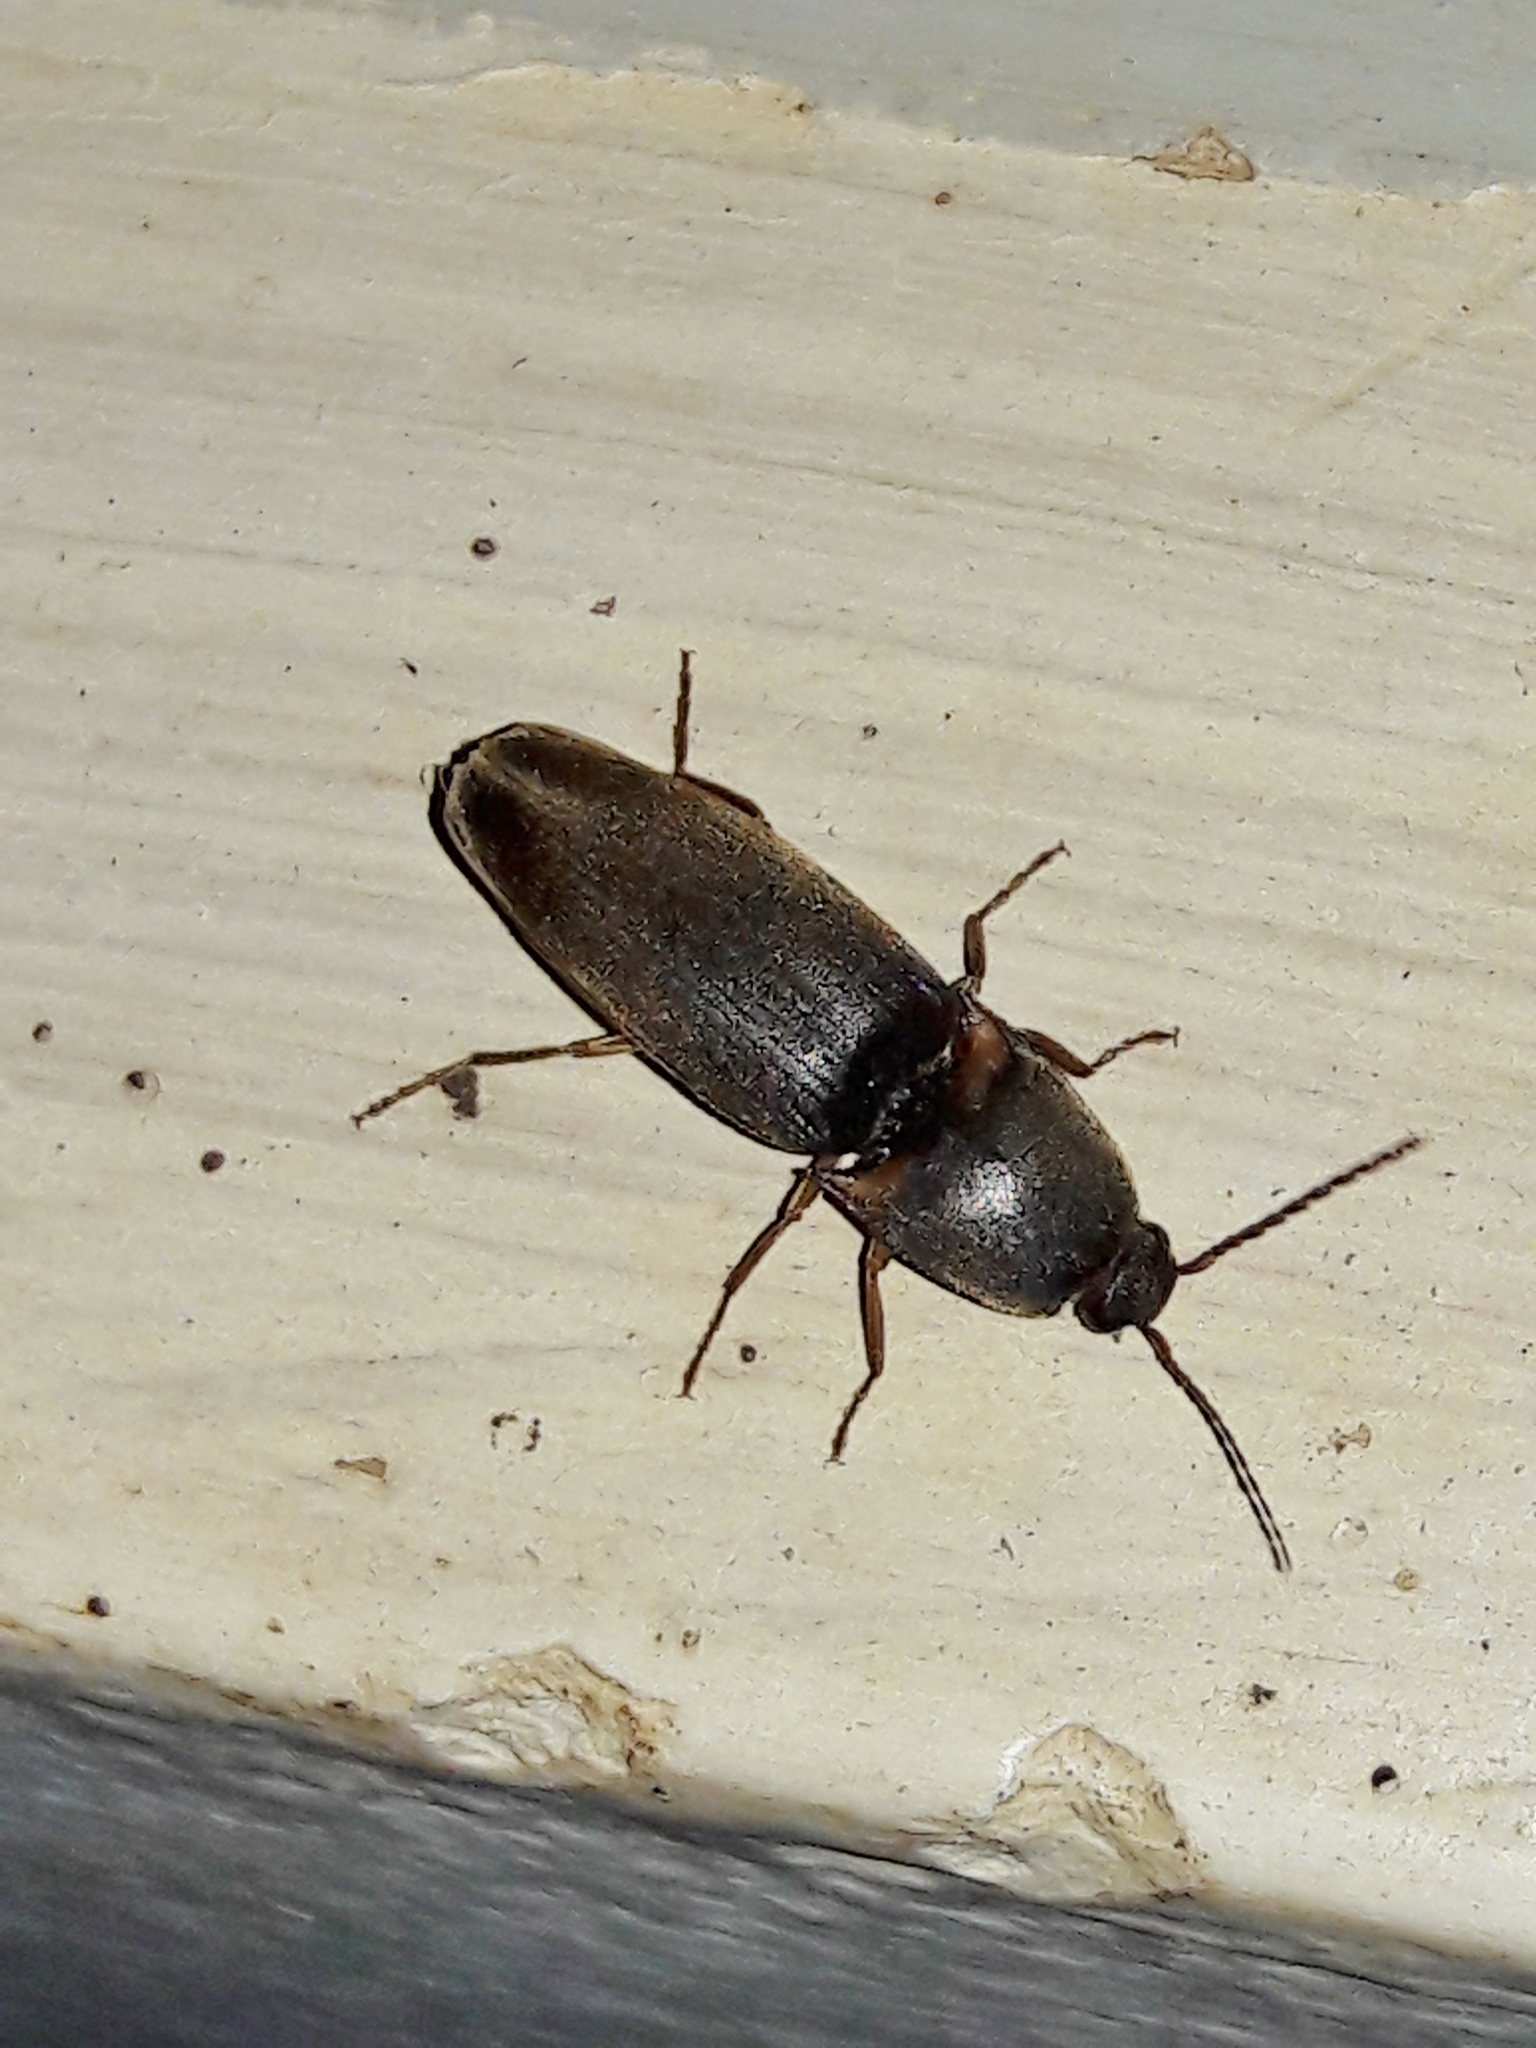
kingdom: Animalia
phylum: Arthropoda
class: Insecta
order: Coleoptera
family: Elateridae
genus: Monocrepidius
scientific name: Monocrepidius
